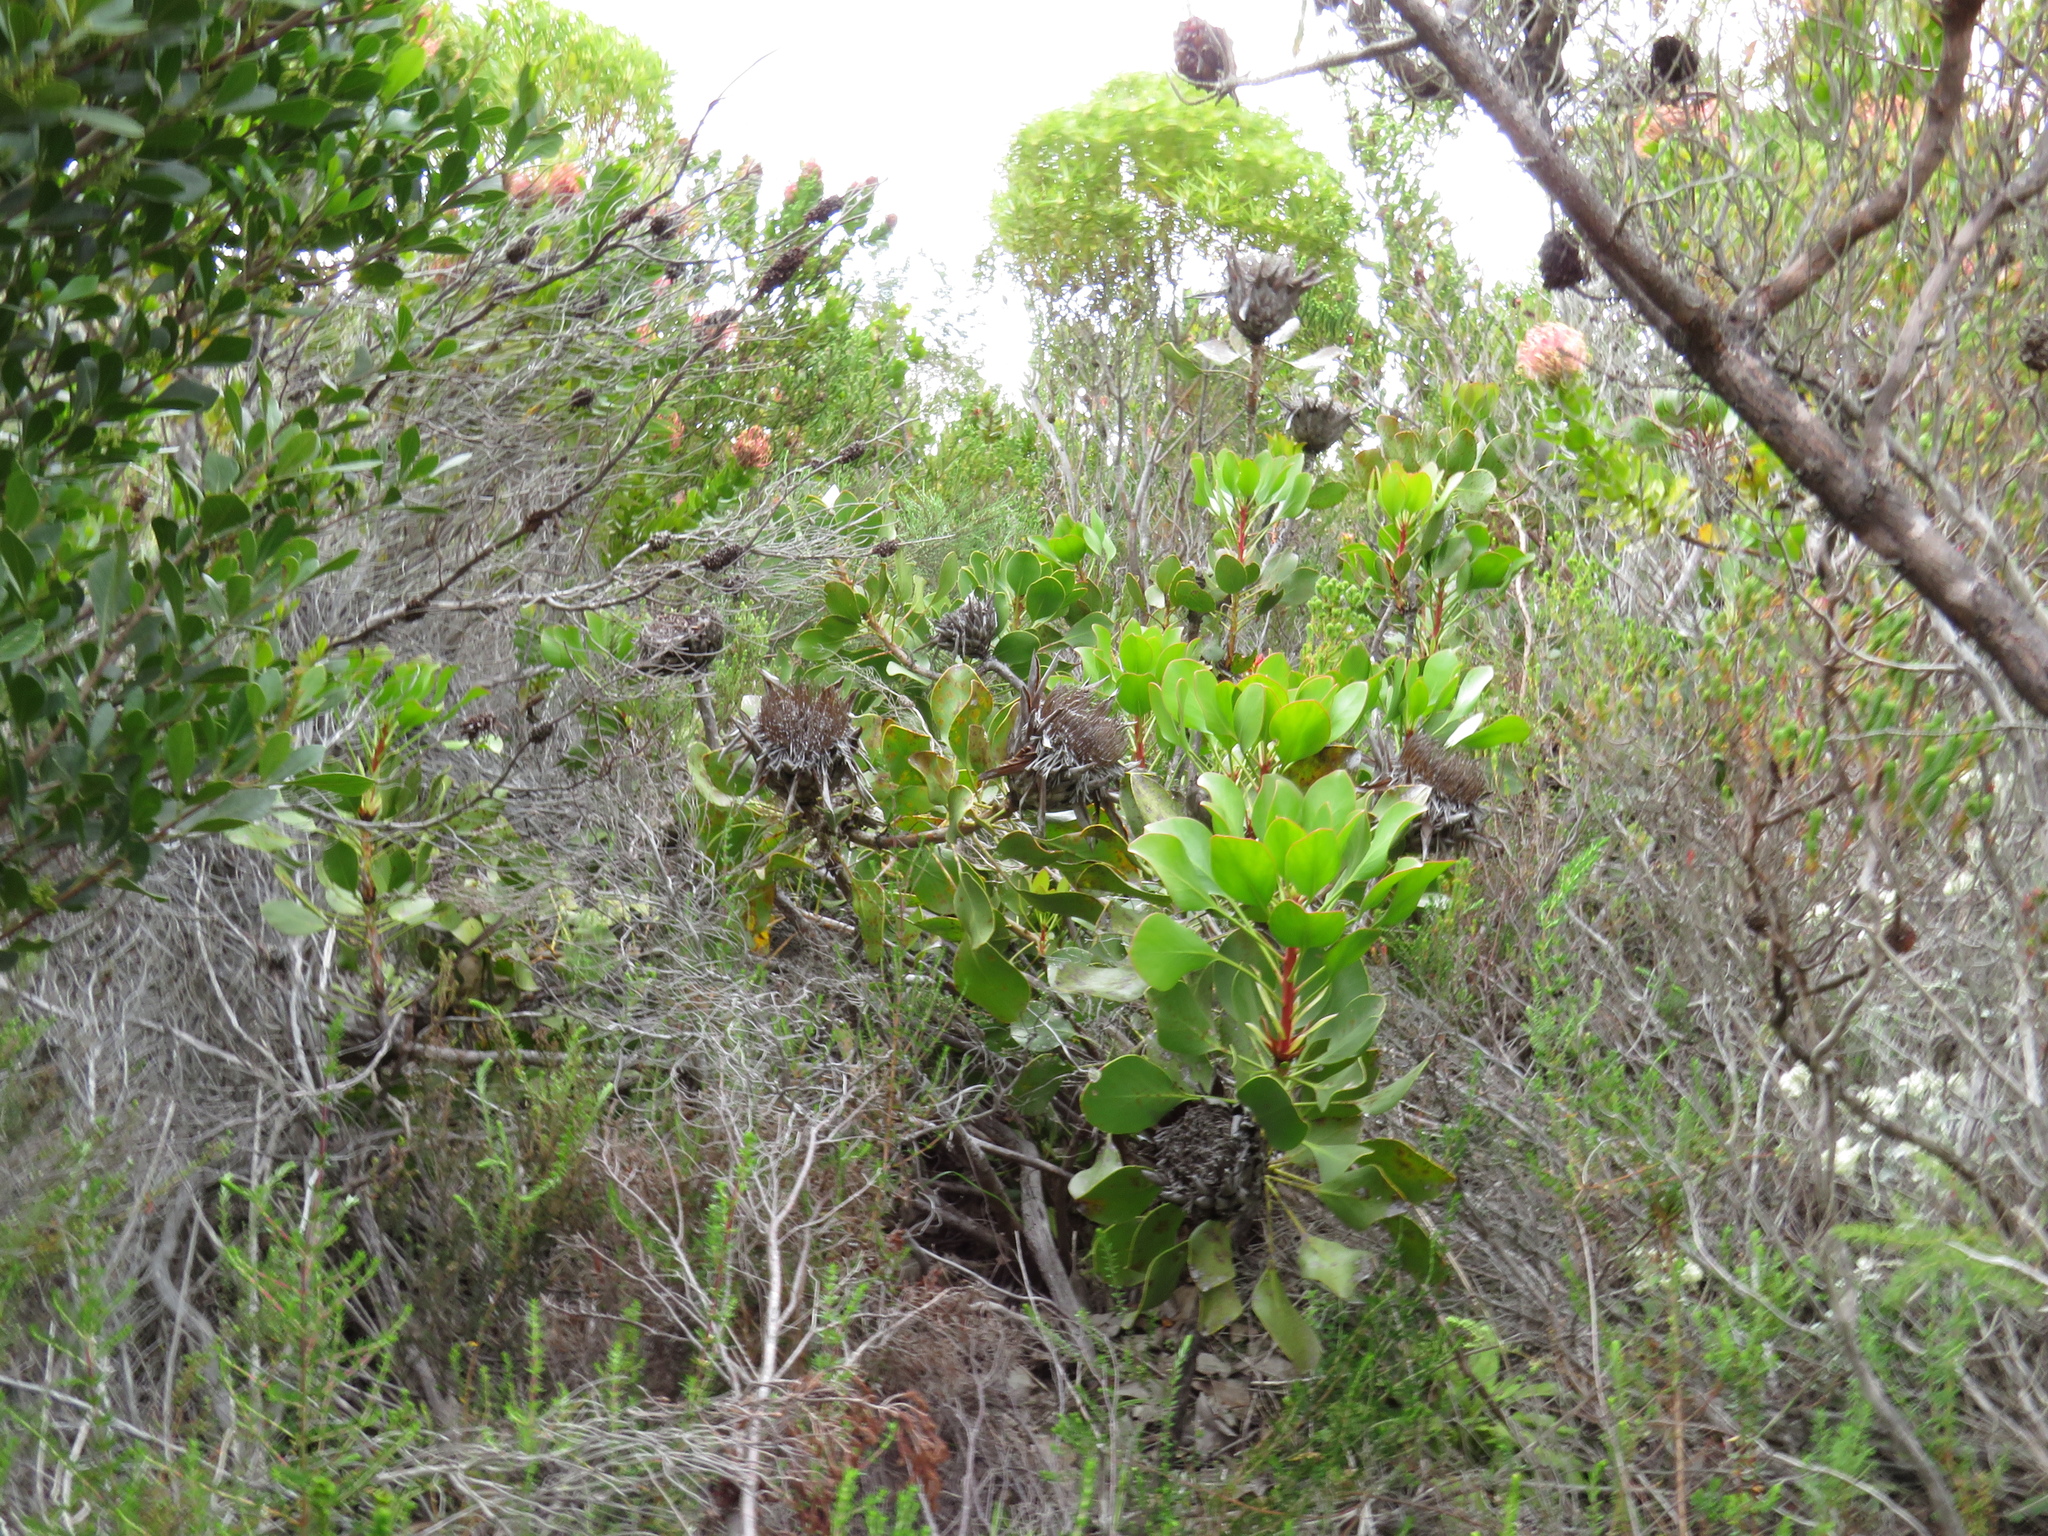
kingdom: Plantae
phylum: Tracheophyta
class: Magnoliopsida
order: Proteales
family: Proteaceae
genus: Protea
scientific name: Protea cynaroides
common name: King protea
